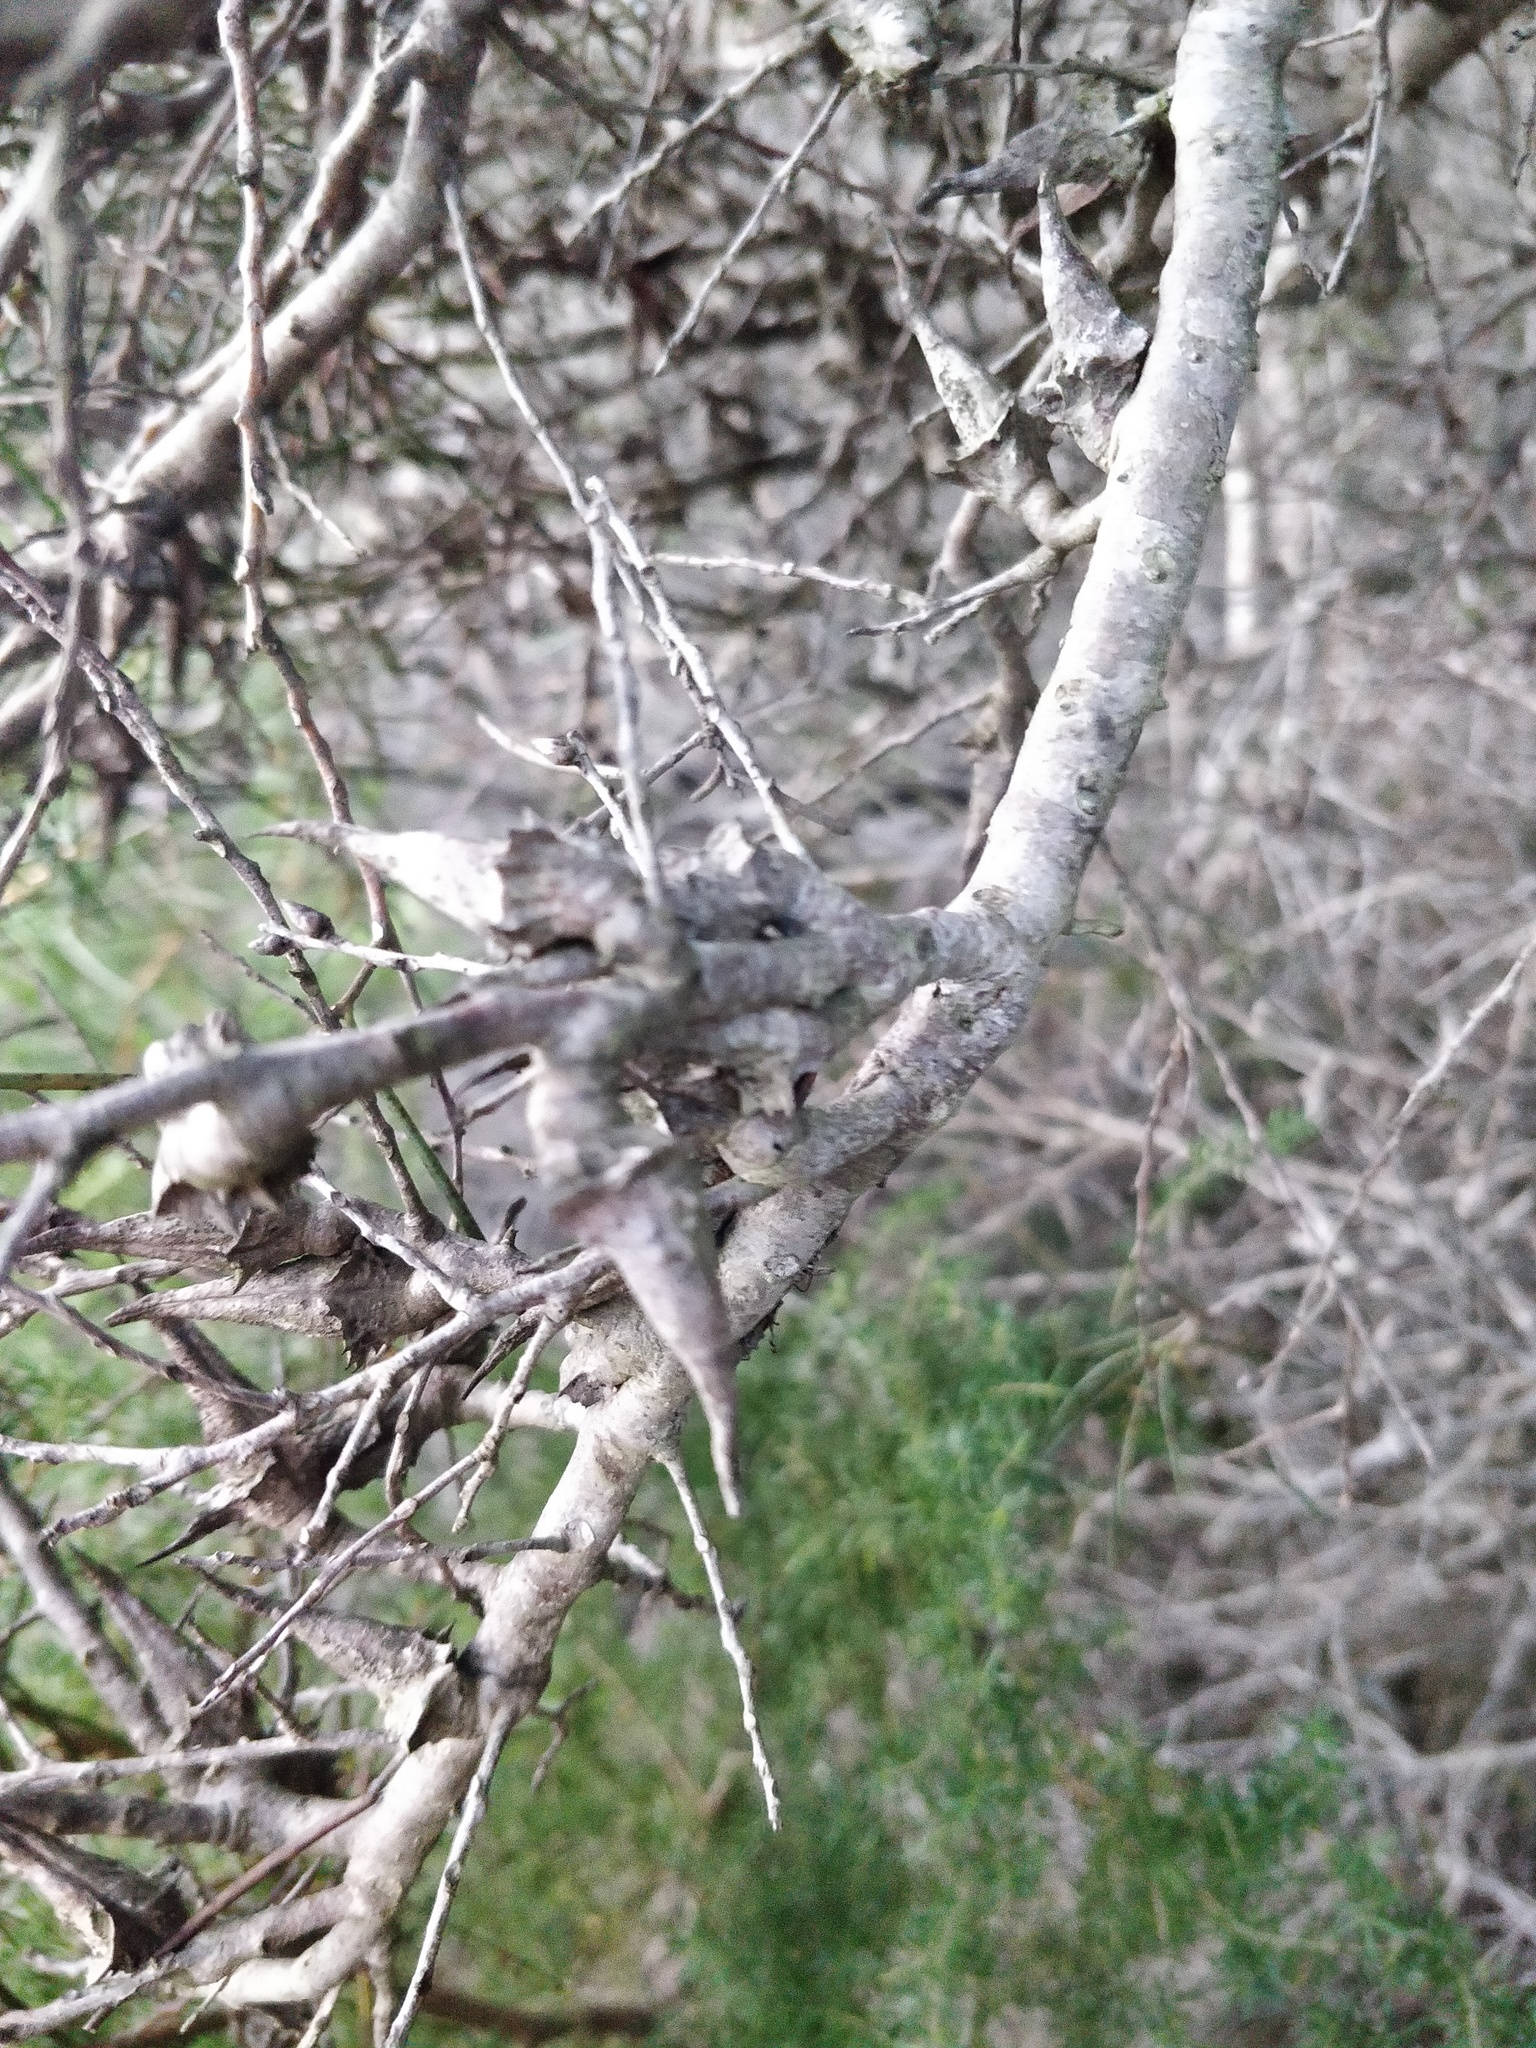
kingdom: Plantae
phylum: Tracheophyta
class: Magnoliopsida
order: Proteales
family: Proteaceae
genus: Hakea
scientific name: Hakea teretifolia
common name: Dagger hakea
